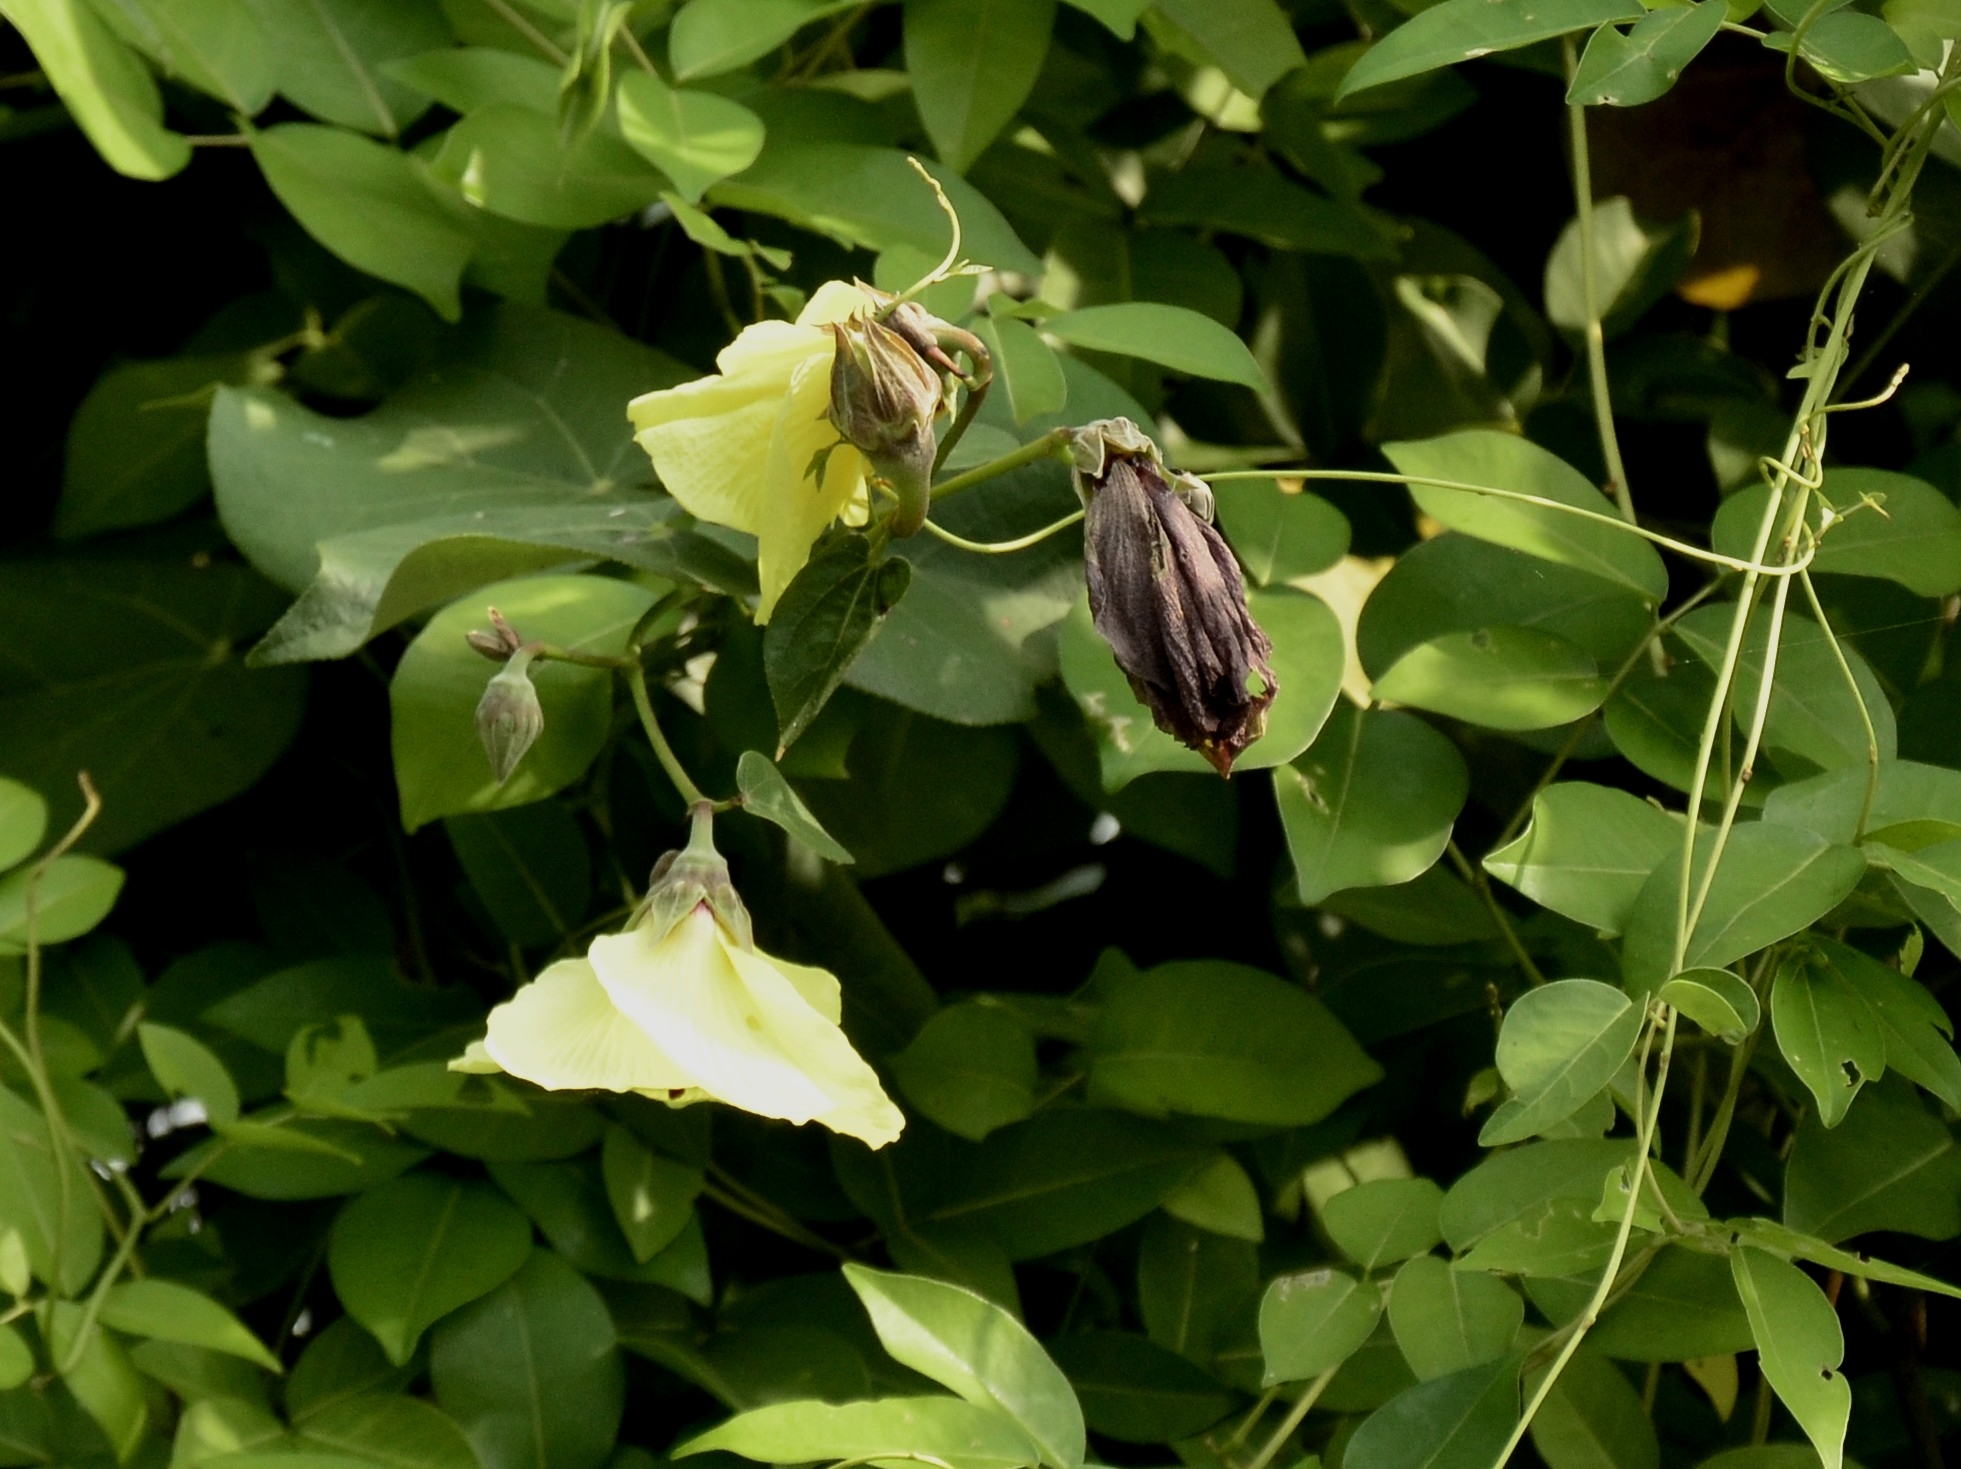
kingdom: Plantae
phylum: Tracheophyta
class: Magnoliopsida
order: Malvales
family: Malvaceae
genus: Talipariti
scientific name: Talipariti tiliaceum
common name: Sea hibiscus
